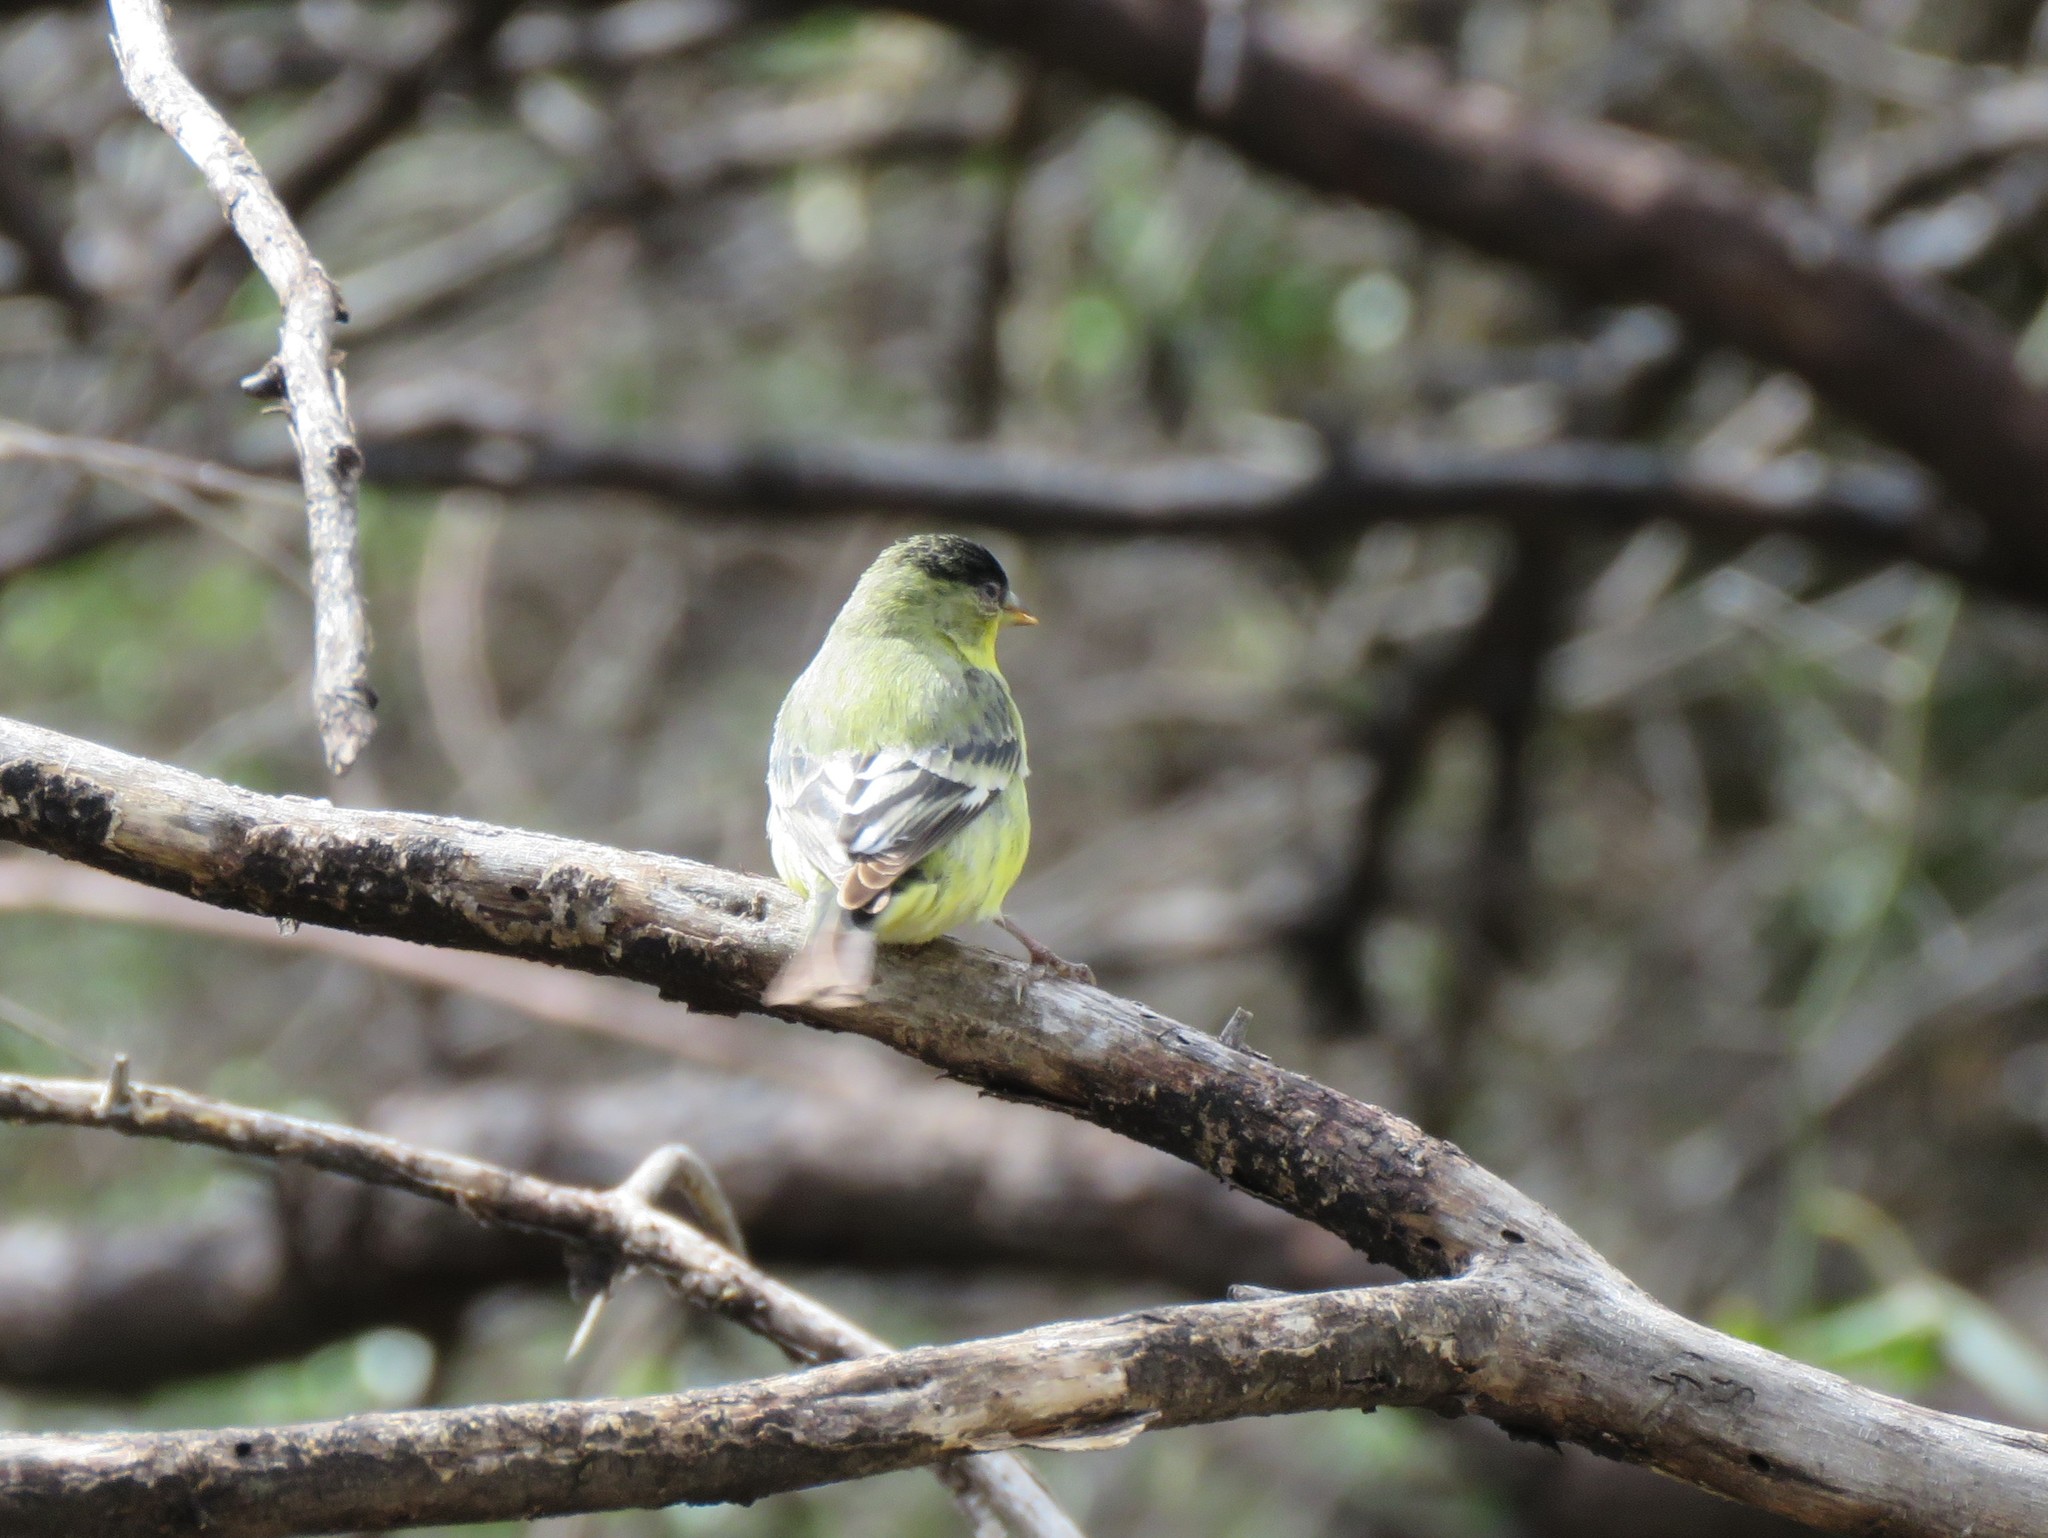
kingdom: Animalia
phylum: Chordata
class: Aves
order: Passeriformes
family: Fringillidae
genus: Spinus
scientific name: Spinus psaltria
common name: Lesser goldfinch
